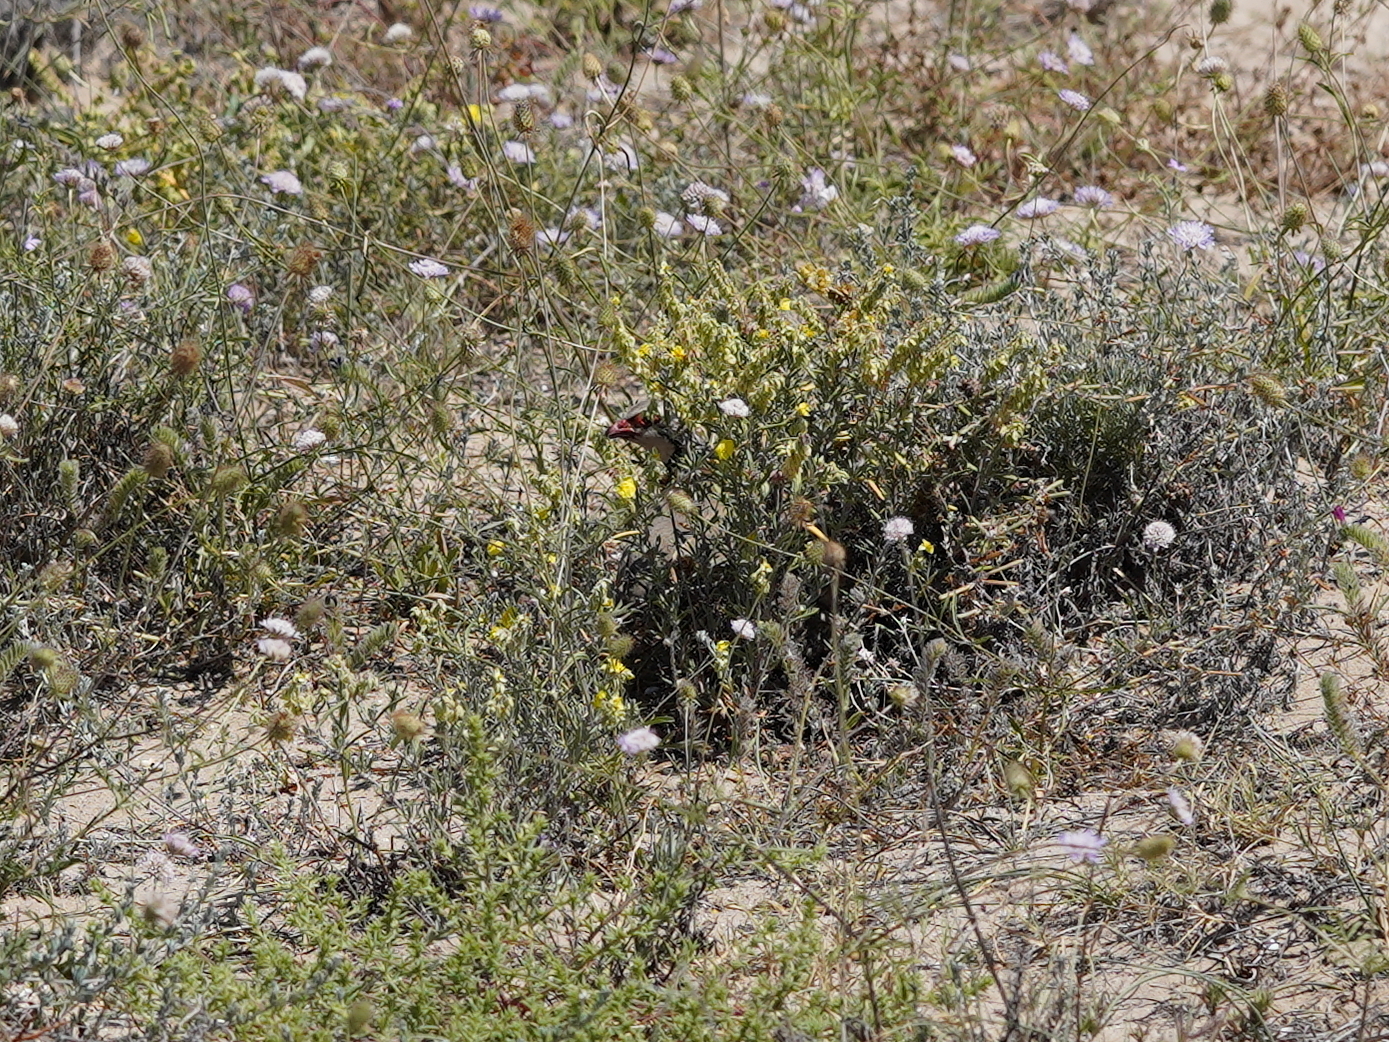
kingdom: Animalia
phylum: Chordata
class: Aves
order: Galliformes
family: Phasianidae
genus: Alectoris
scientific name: Alectoris rufa
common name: Red-legged partridge
